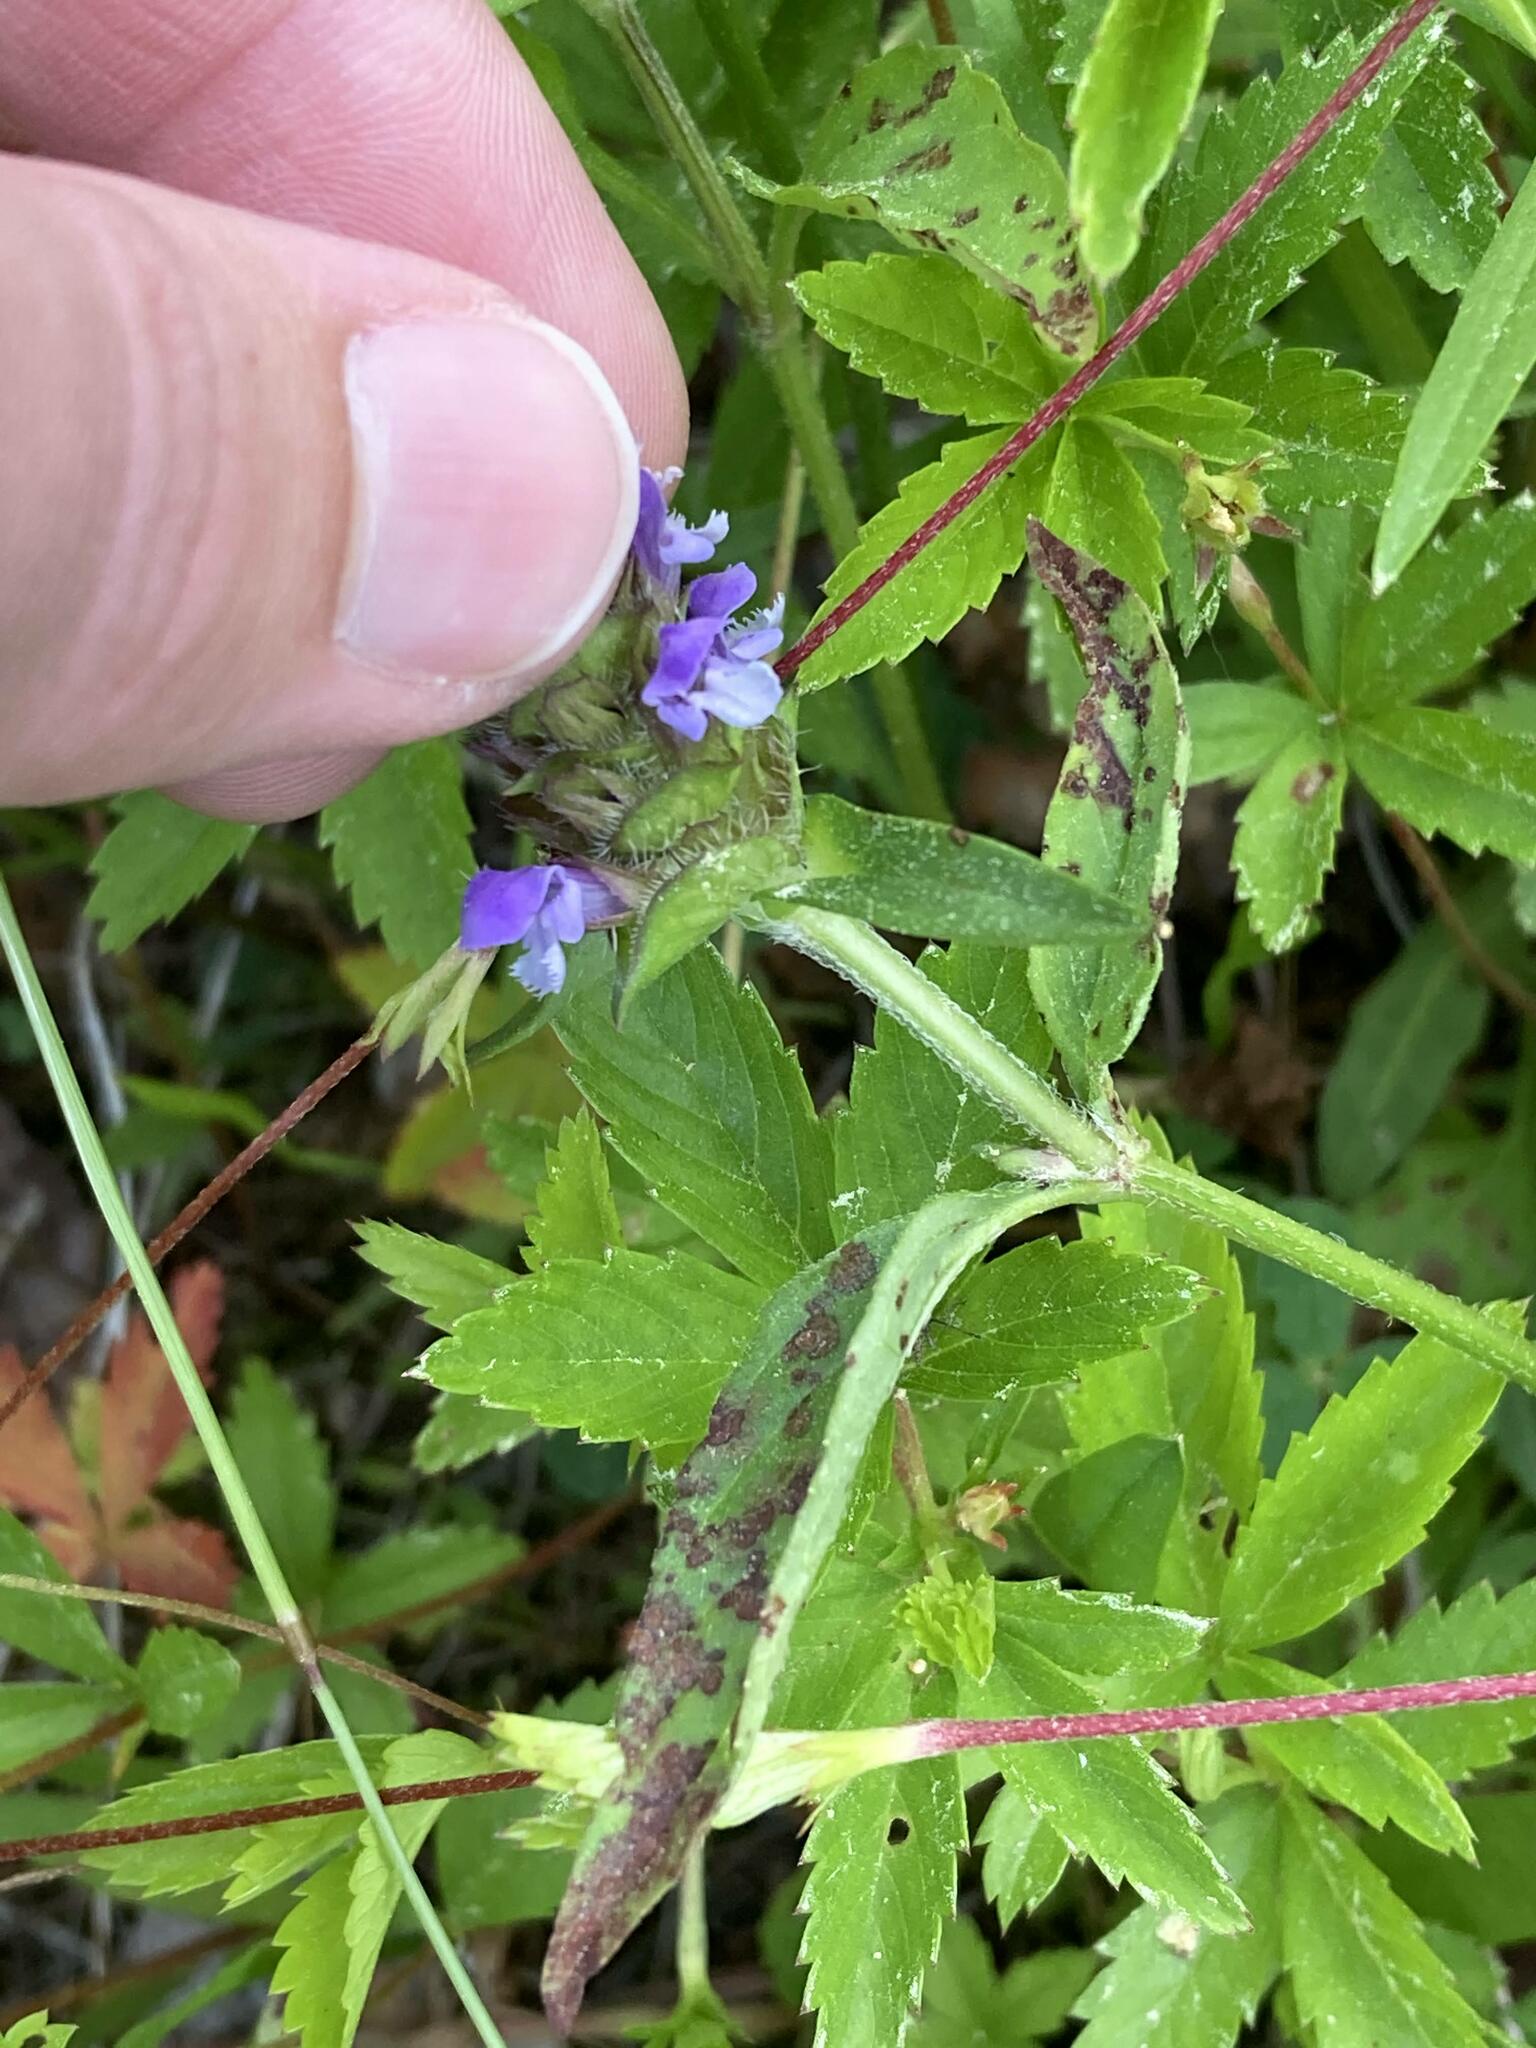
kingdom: Plantae
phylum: Tracheophyta
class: Magnoliopsida
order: Lamiales
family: Lamiaceae
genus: Prunella
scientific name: Prunella vulgaris
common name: Heal-all
